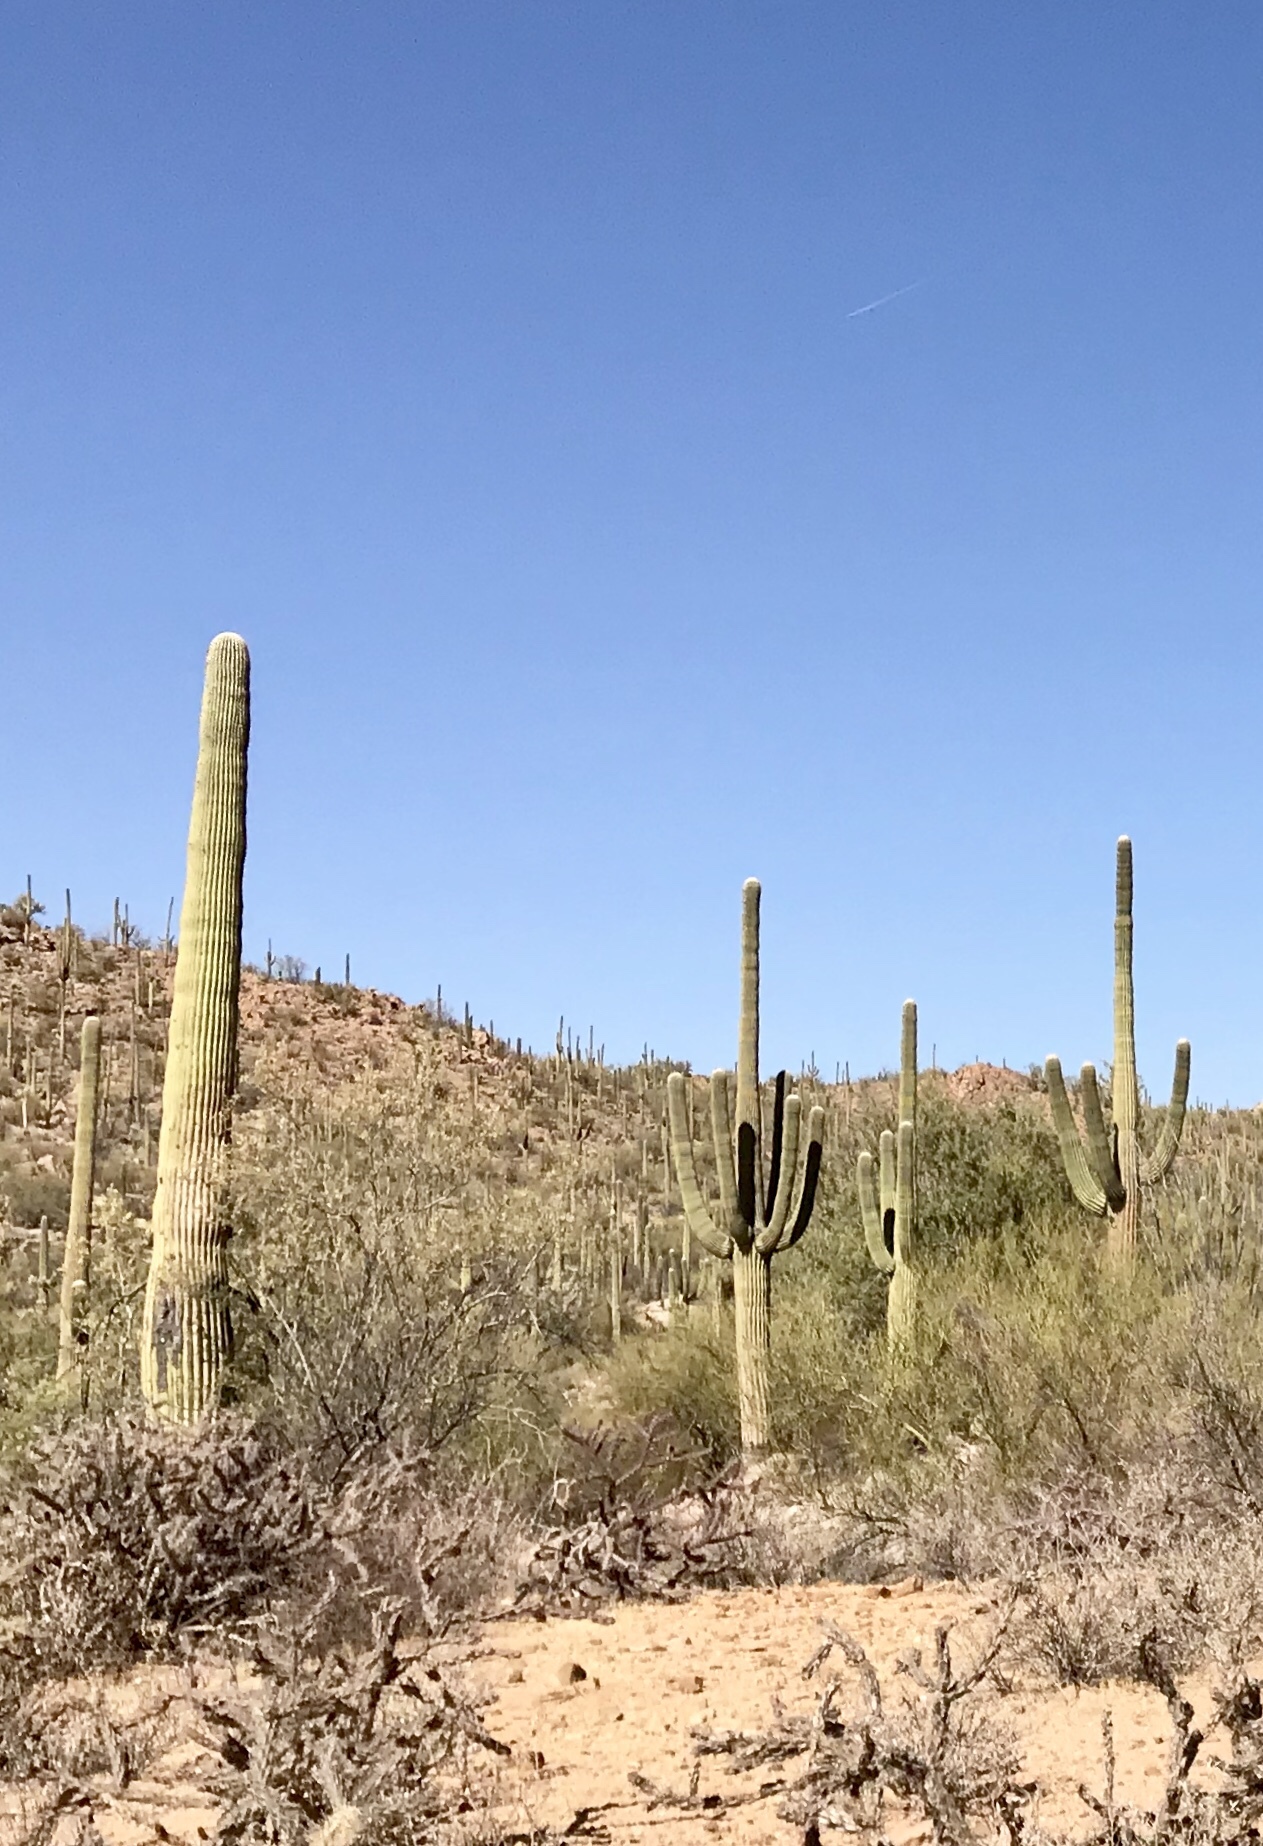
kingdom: Plantae
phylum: Tracheophyta
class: Magnoliopsida
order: Caryophyllales
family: Cactaceae
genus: Carnegiea
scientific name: Carnegiea gigantea
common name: Saguaro
